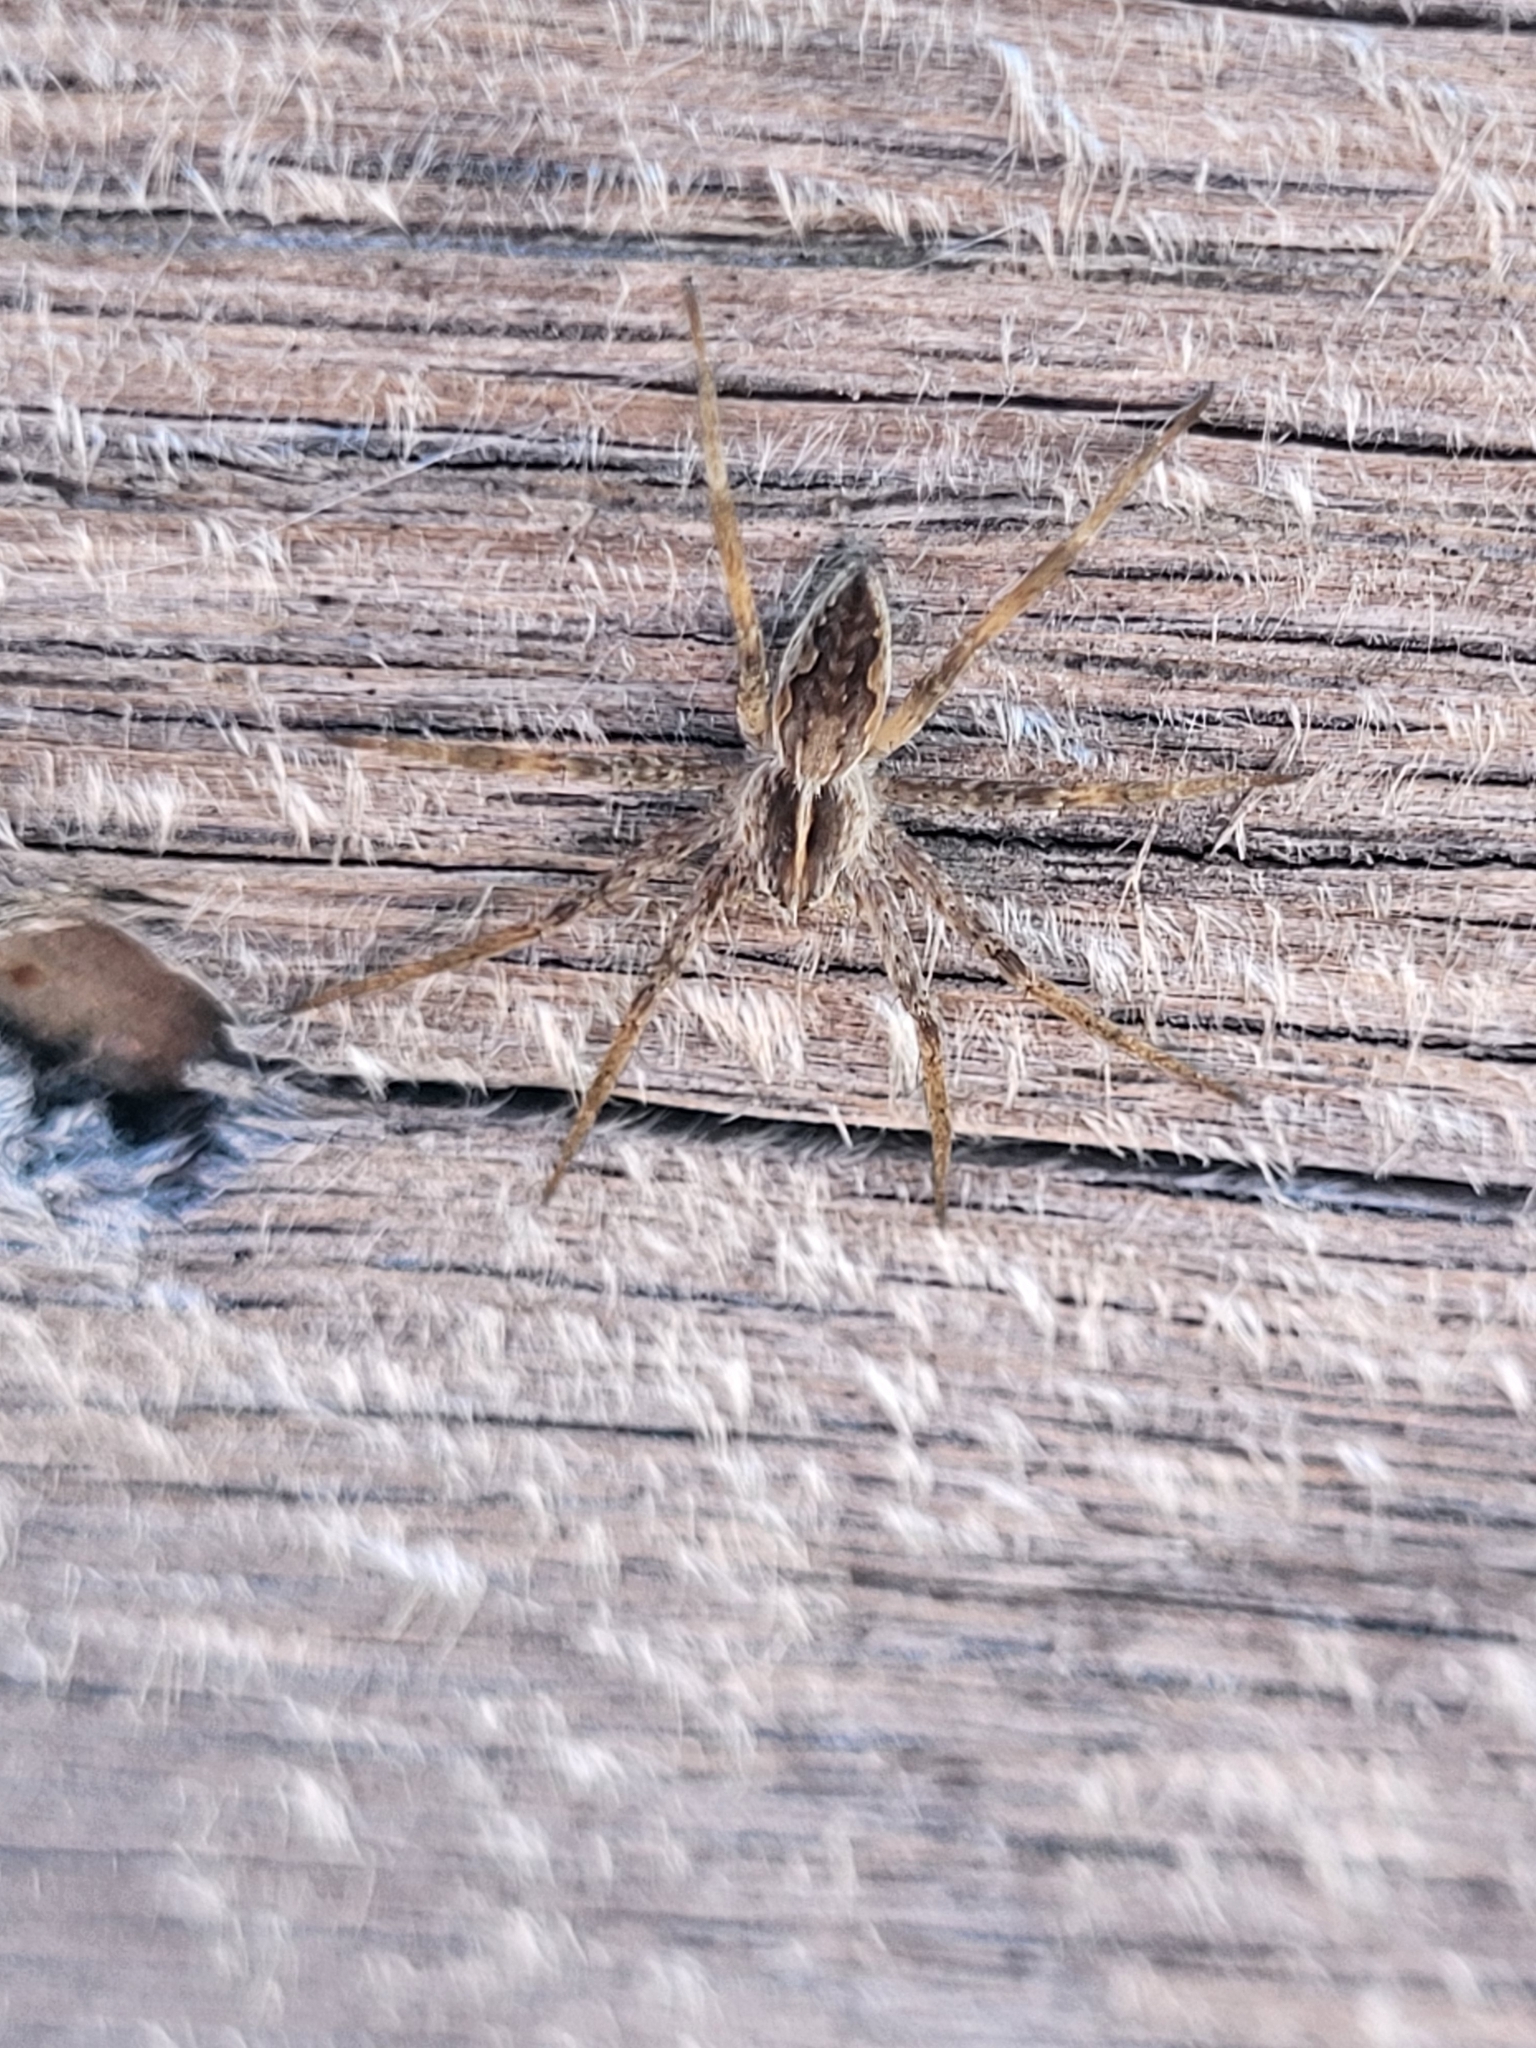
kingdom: Animalia
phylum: Arthropoda
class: Arachnida
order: Araneae
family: Pisauridae
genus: Pisaura
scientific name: Pisaura mirabilis
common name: Tent spider
